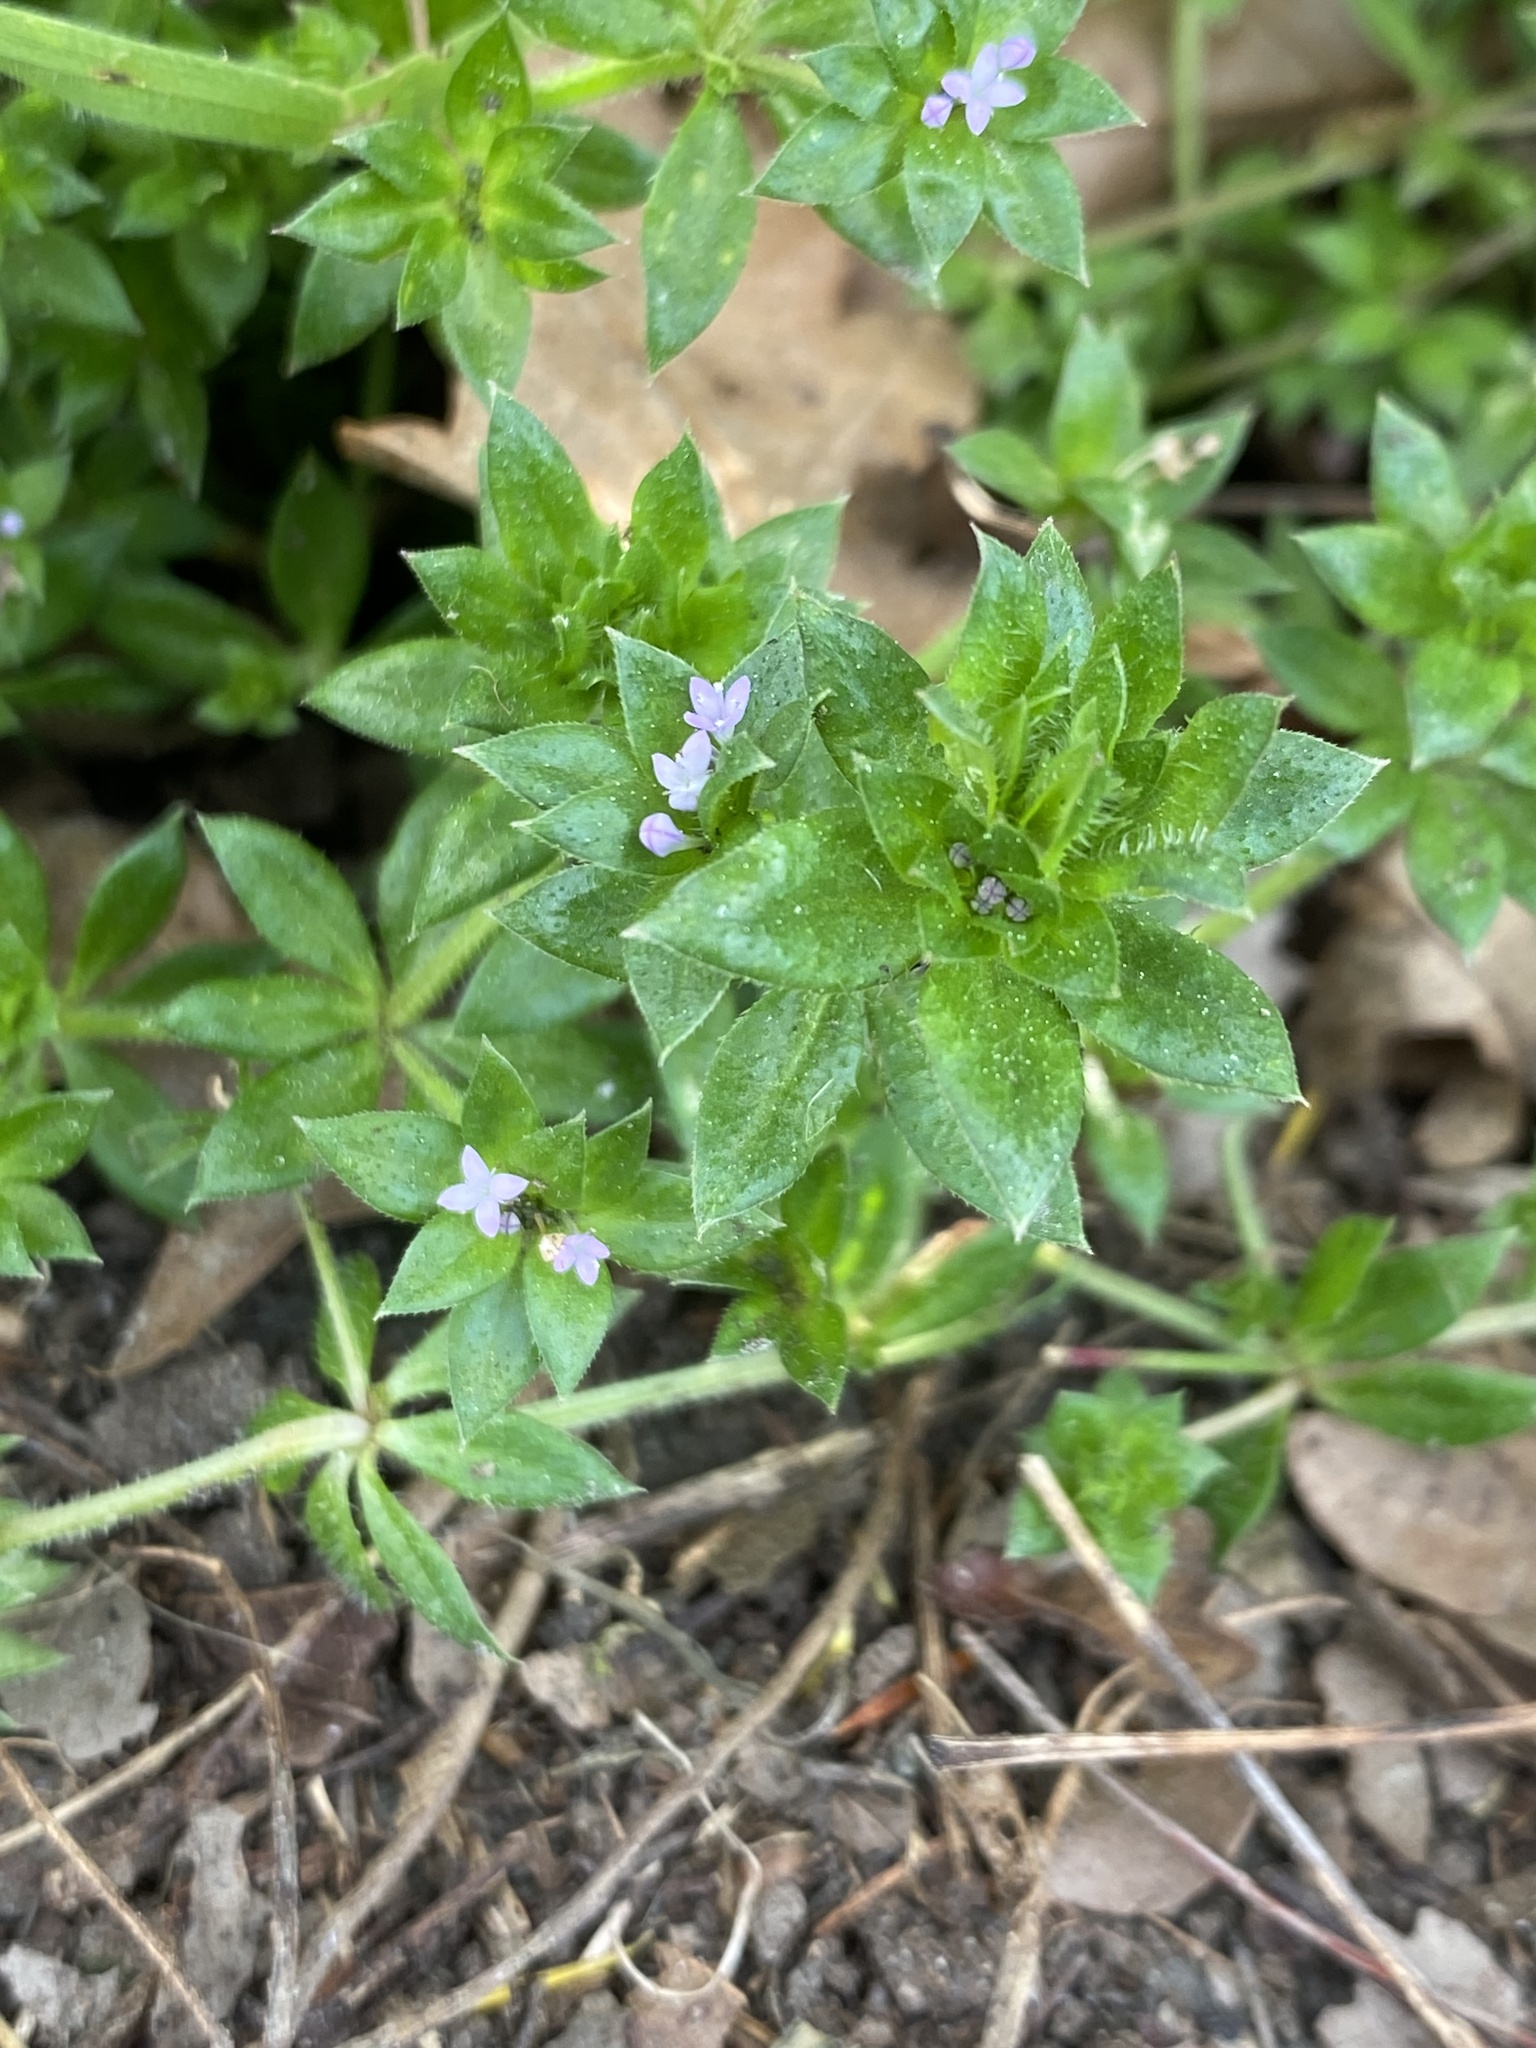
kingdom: Plantae
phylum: Tracheophyta
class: Magnoliopsida
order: Gentianales
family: Rubiaceae
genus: Sherardia
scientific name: Sherardia arvensis
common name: Field madder
